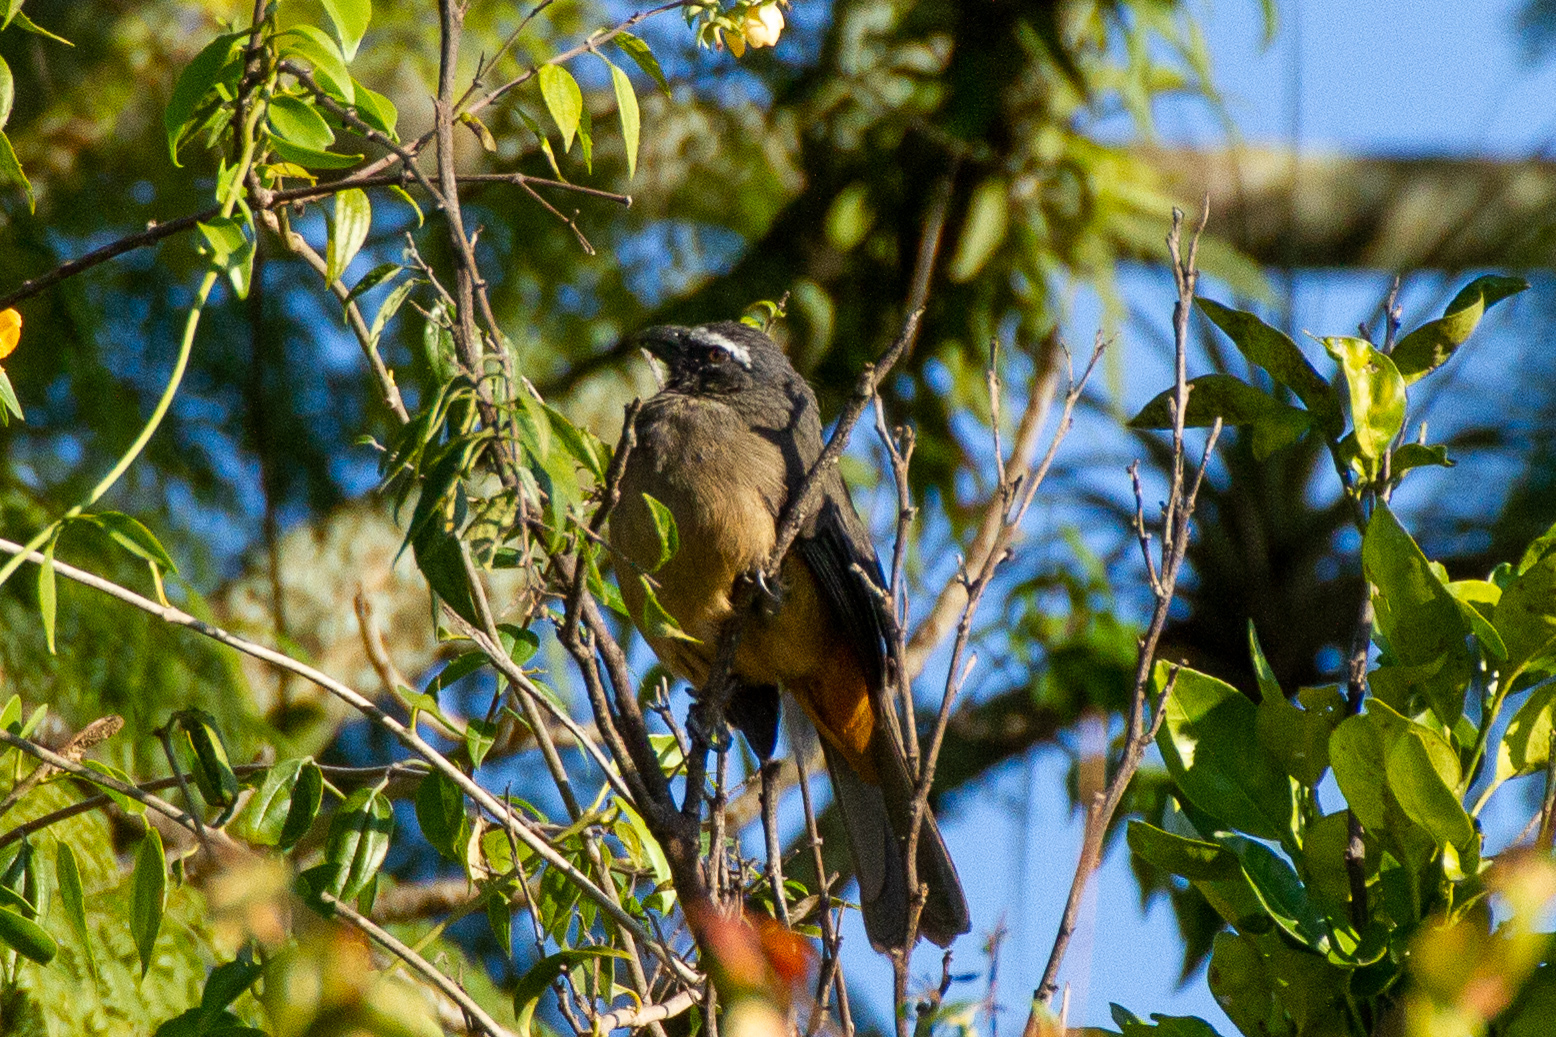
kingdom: Animalia
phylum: Chordata
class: Aves
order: Passeriformes
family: Thraupidae
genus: Saltator
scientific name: Saltator grandis
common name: Cinnamon-bellied saltator
